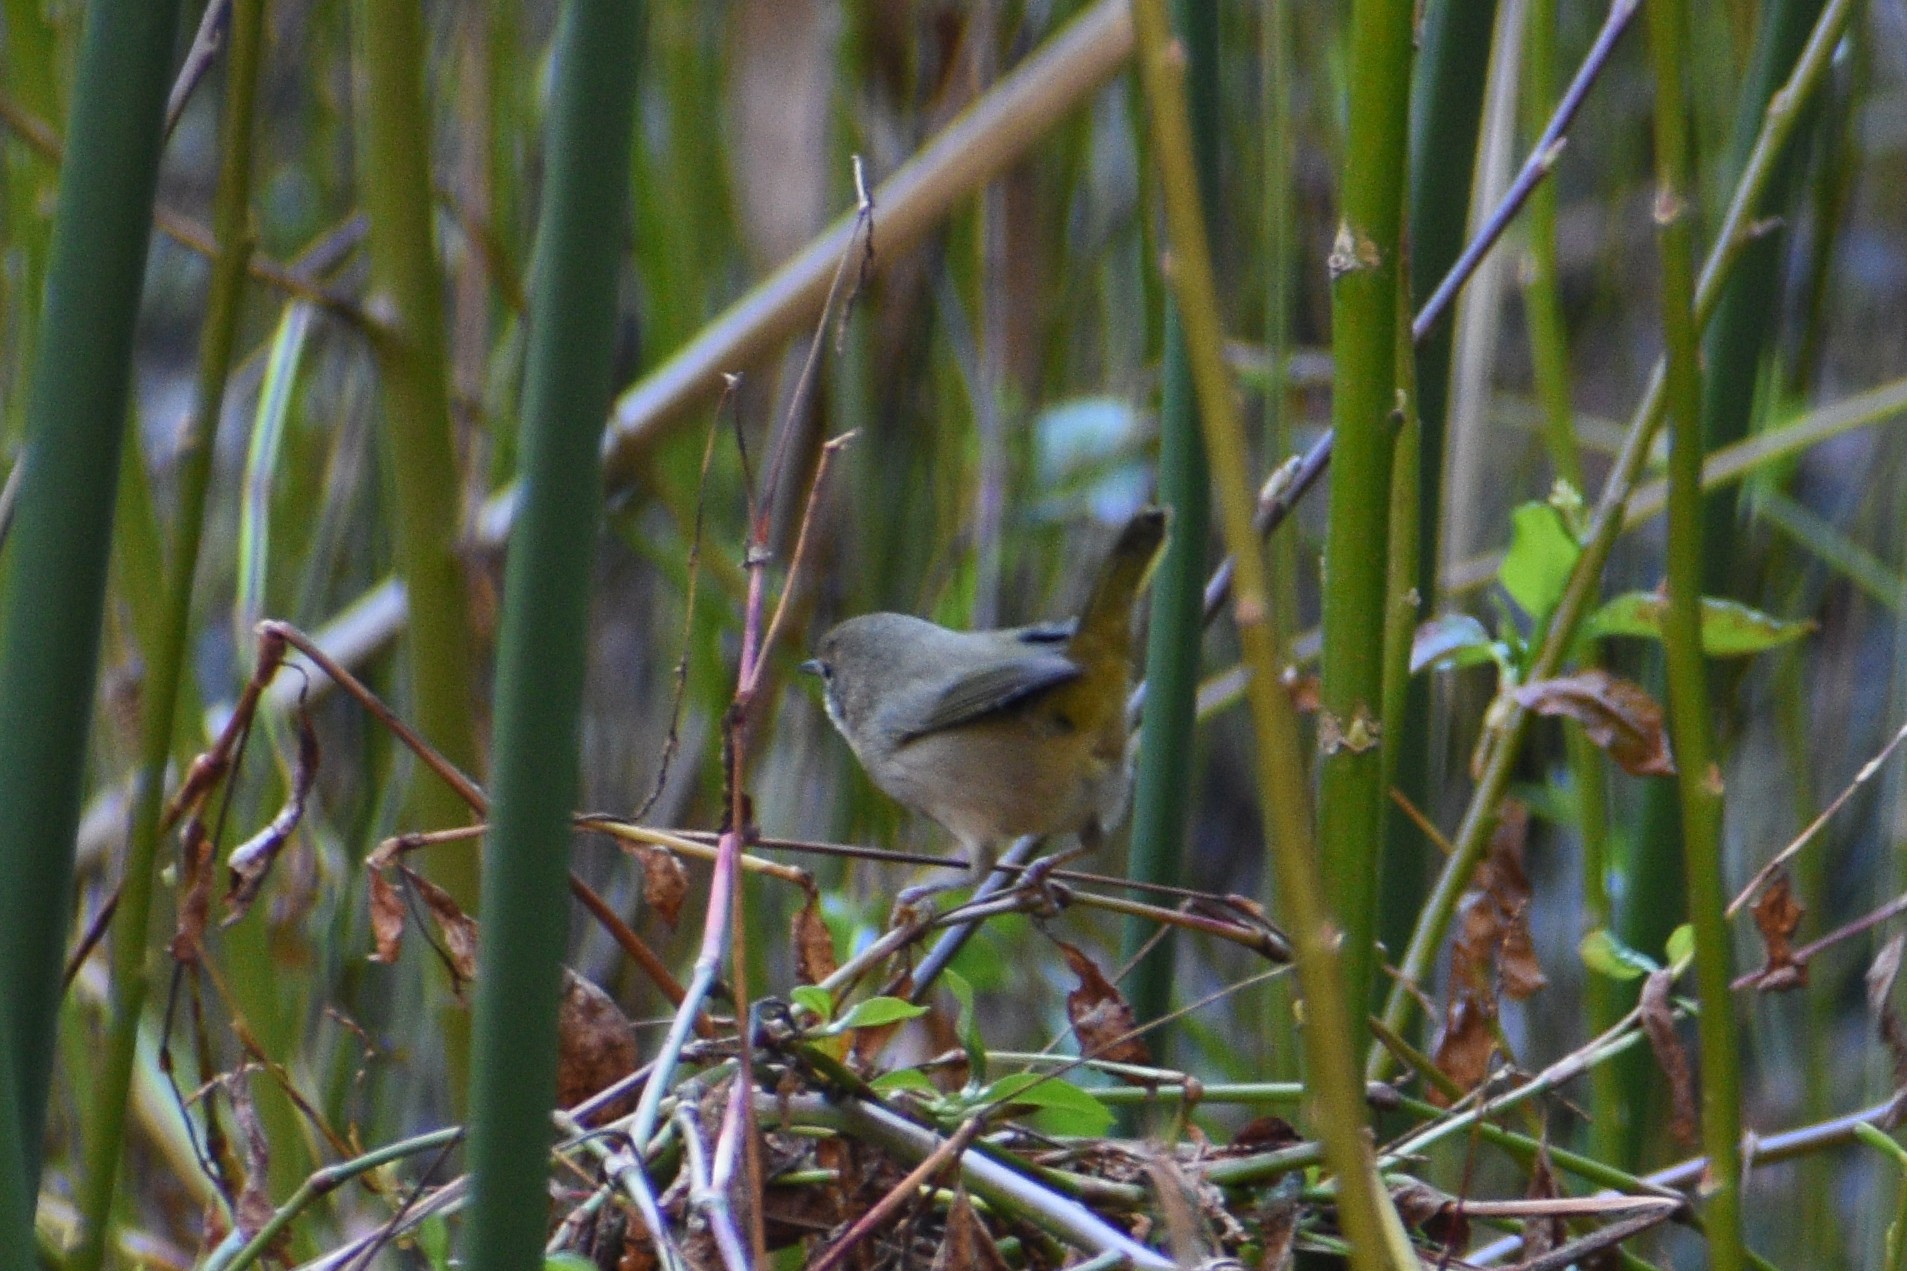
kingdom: Animalia
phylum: Chordata
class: Aves
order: Passeriformes
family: Parulidae
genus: Geothlypis
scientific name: Geothlypis trichas
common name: Common yellowthroat
